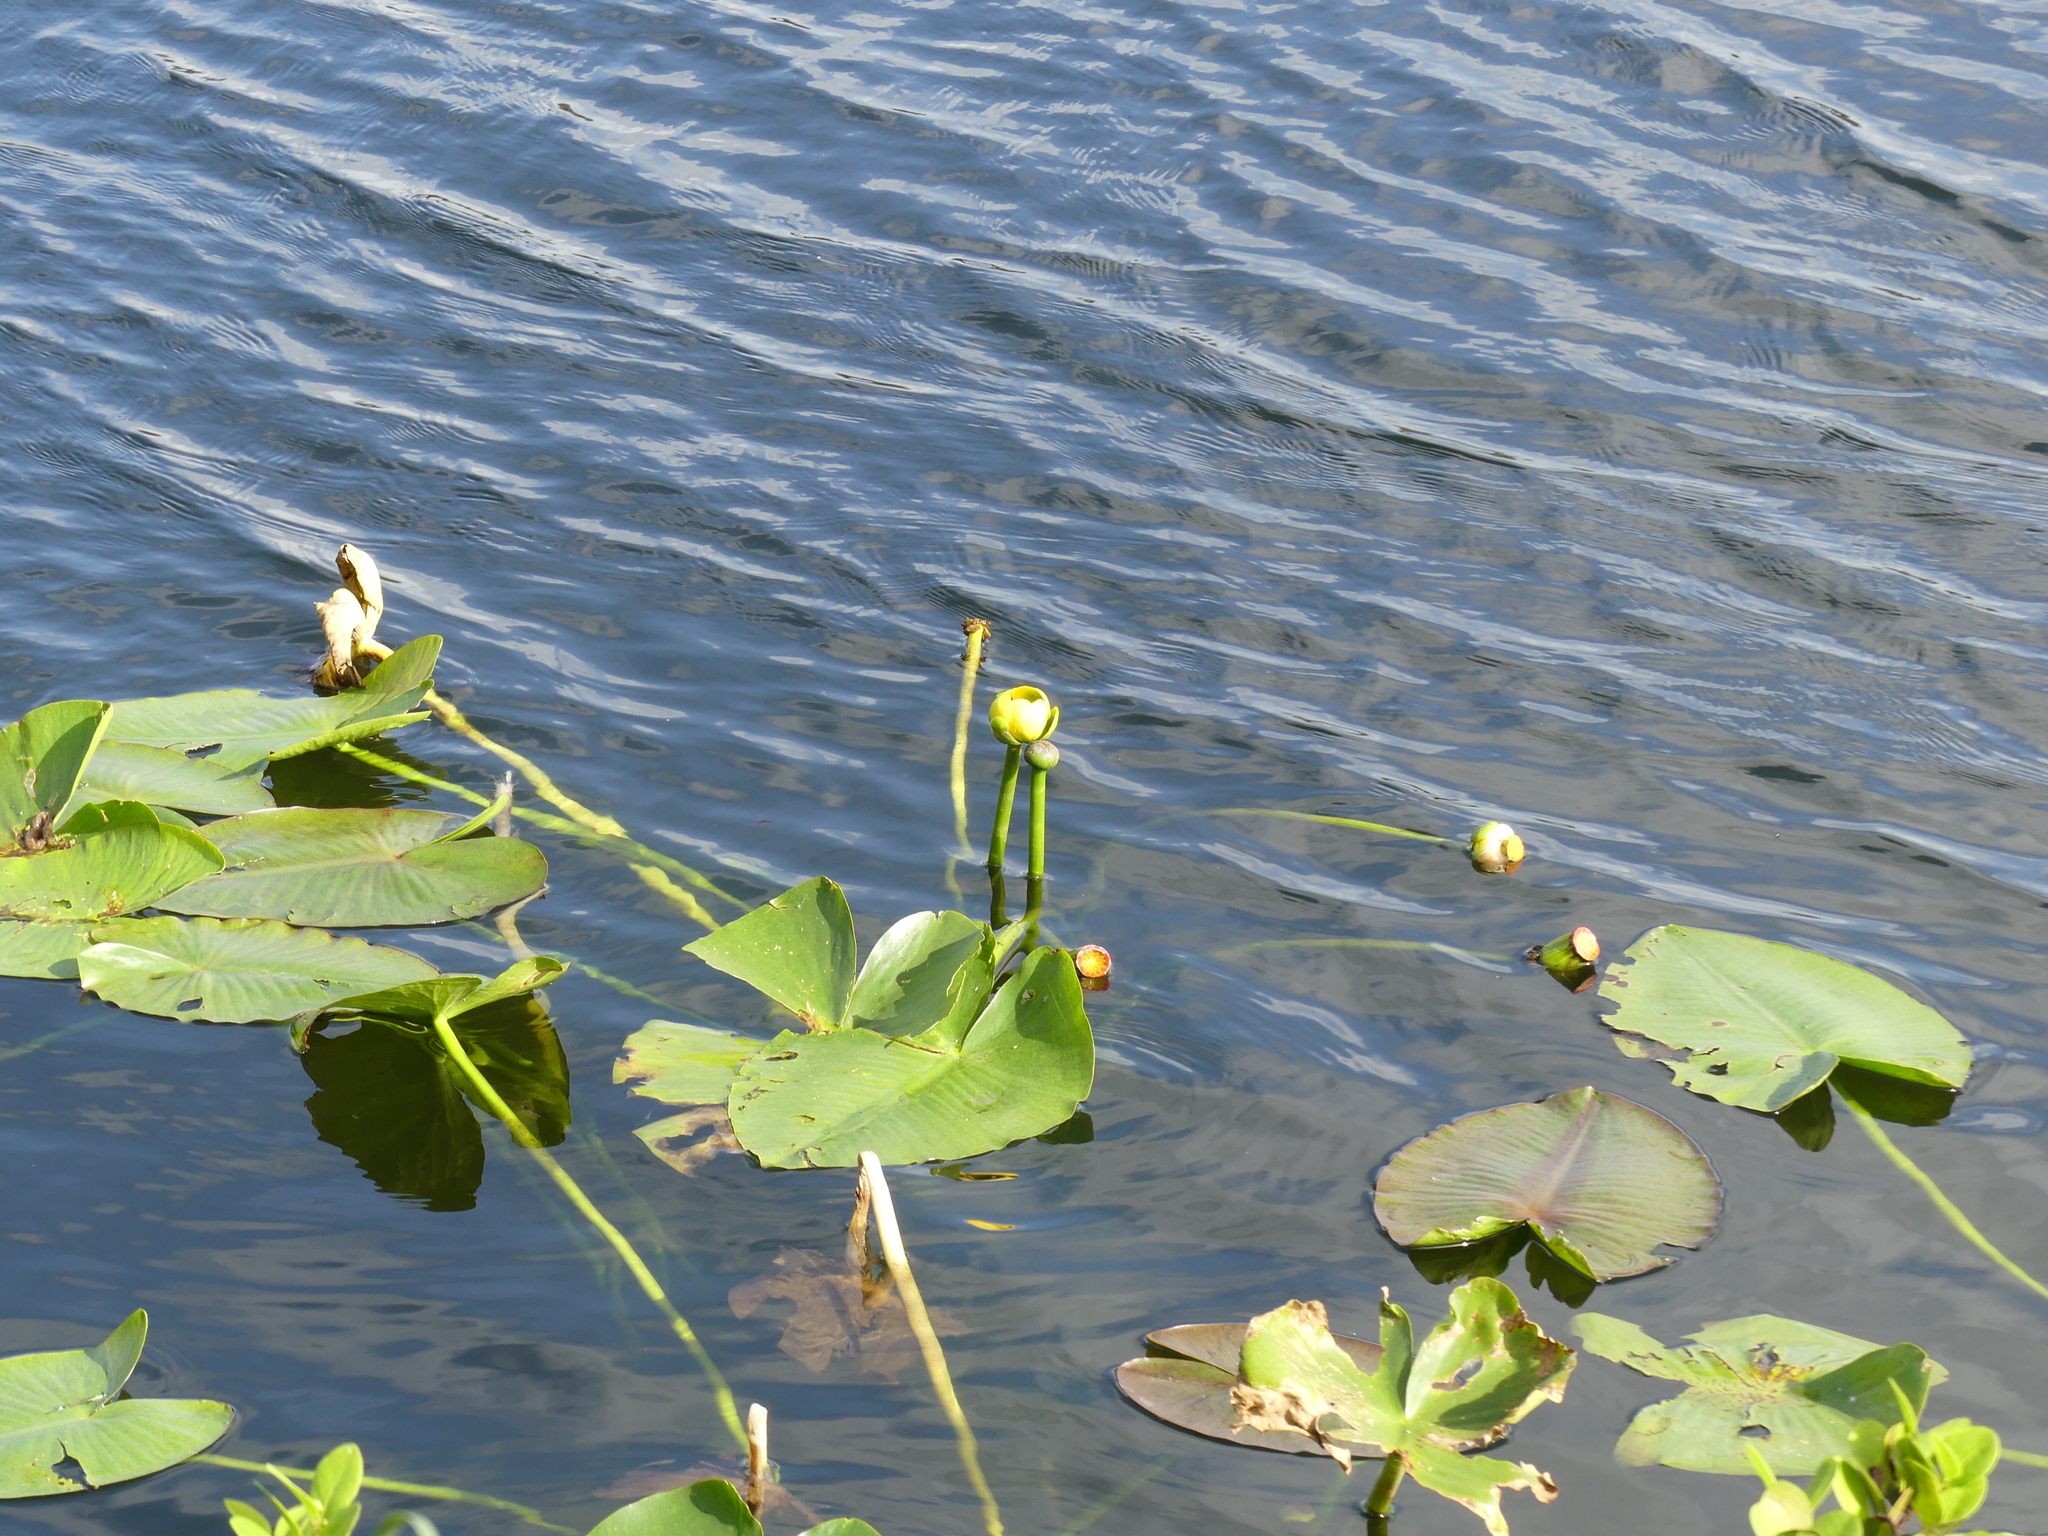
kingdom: Plantae
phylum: Tracheophyta
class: Magnoliopsida
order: Nymphaeales
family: Nymphaeaceae
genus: Nuphar
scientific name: Nuphar advena
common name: Spatter-dock
